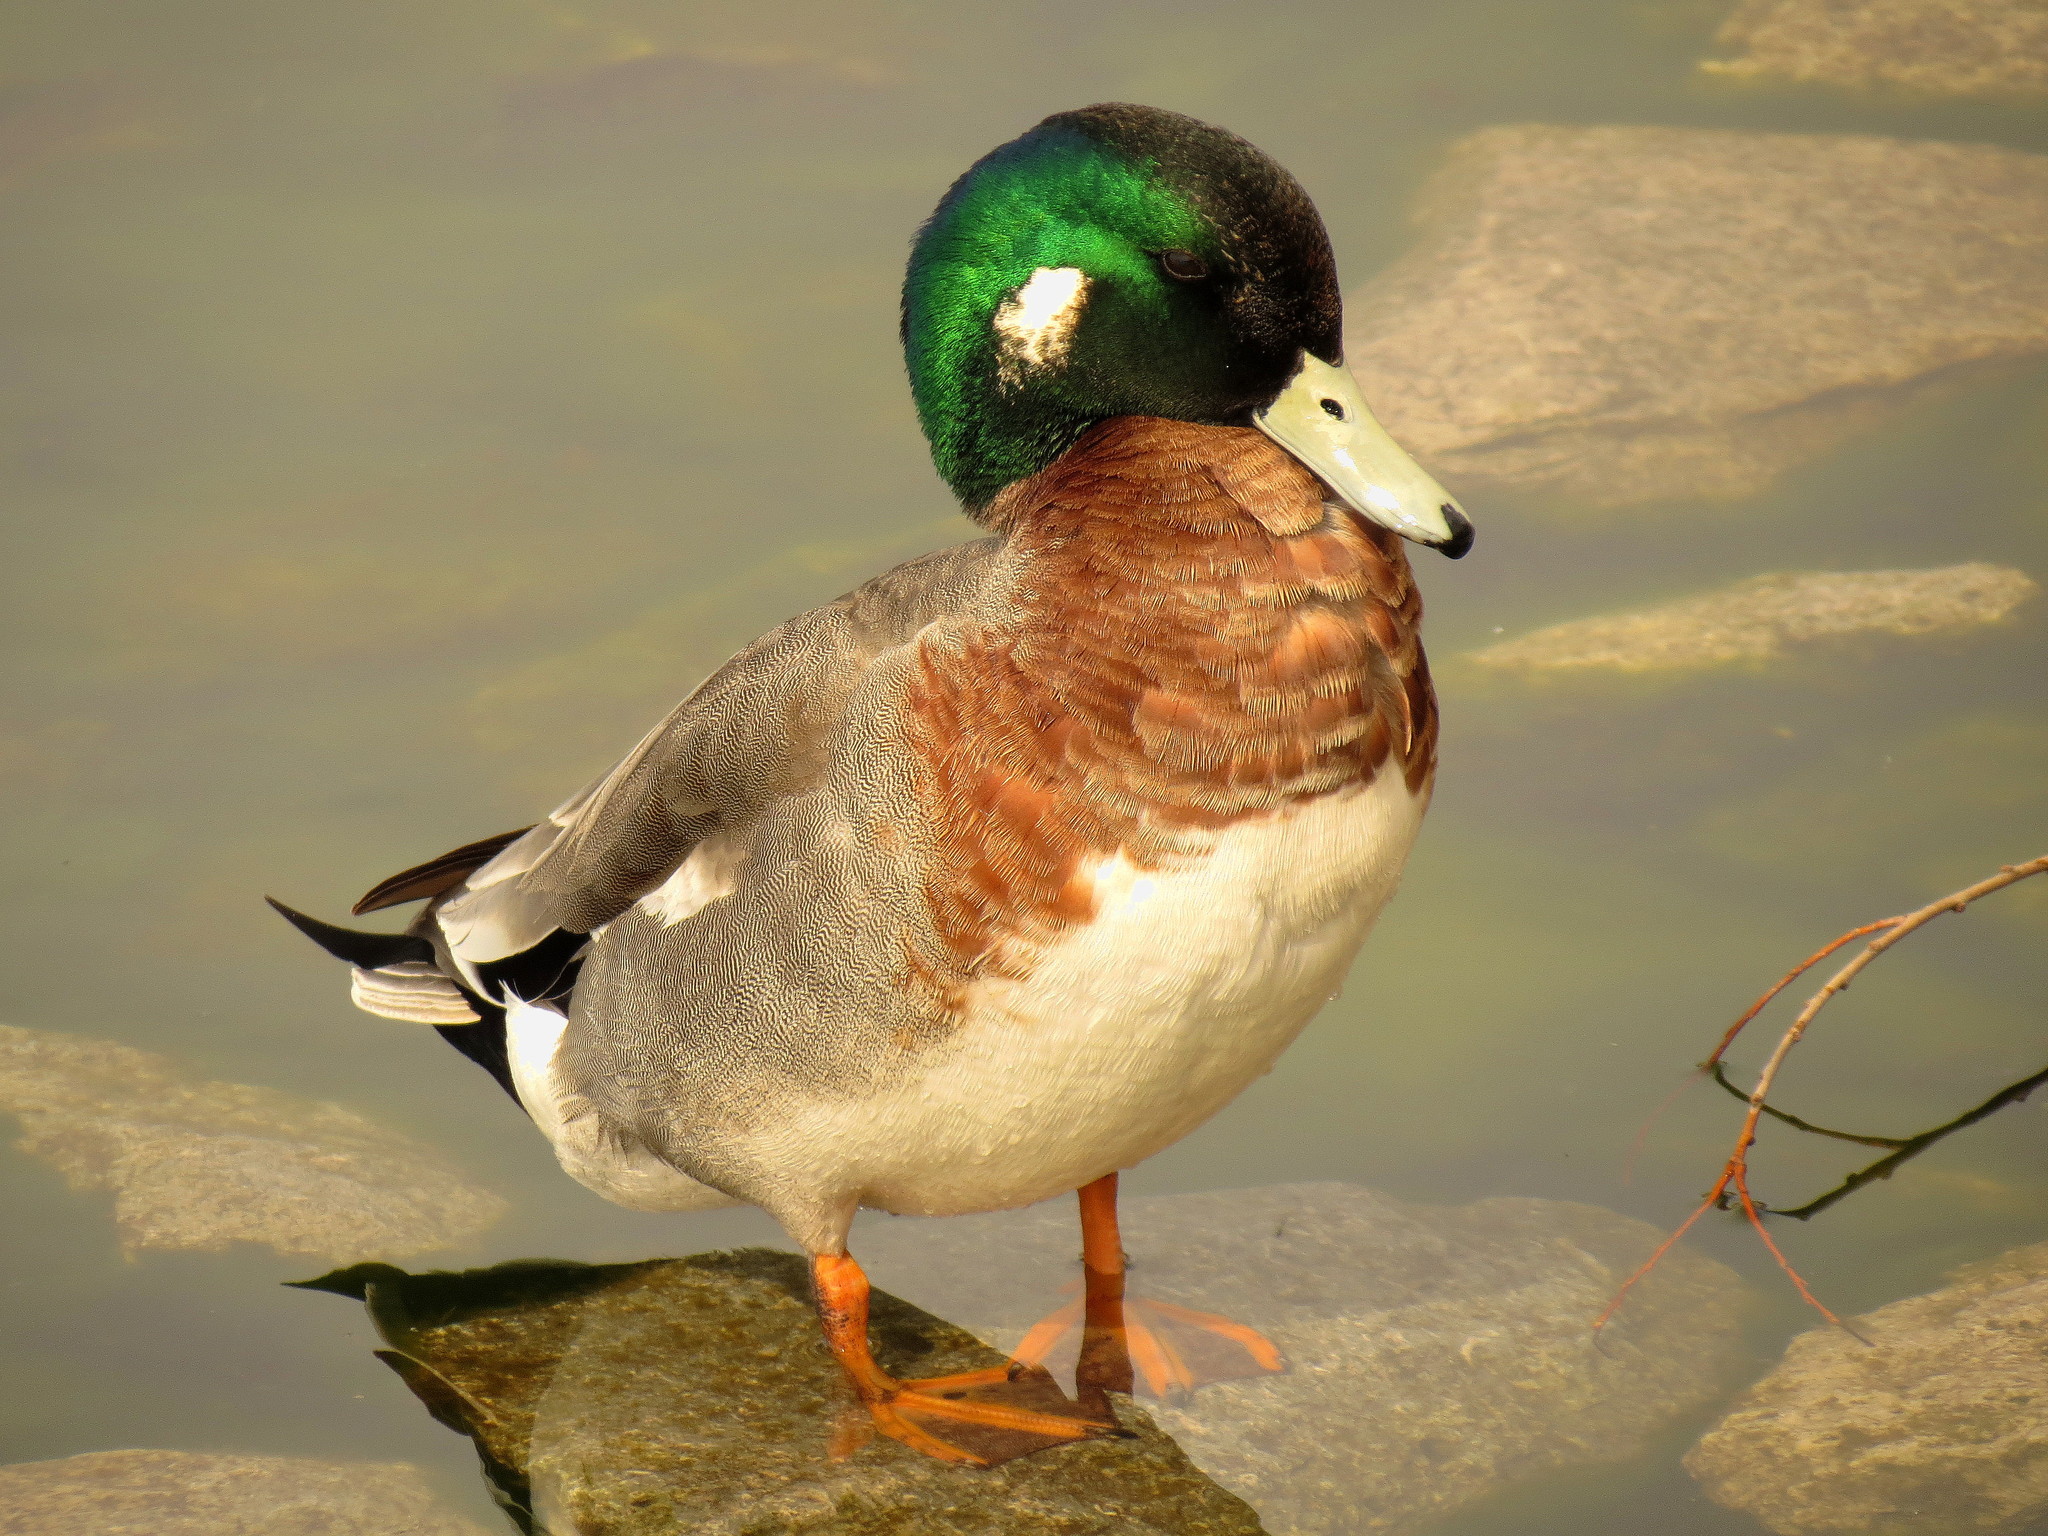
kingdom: Animalia
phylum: Chordata
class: Aves
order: Anseriformes
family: Anatidae
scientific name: Anatidae
